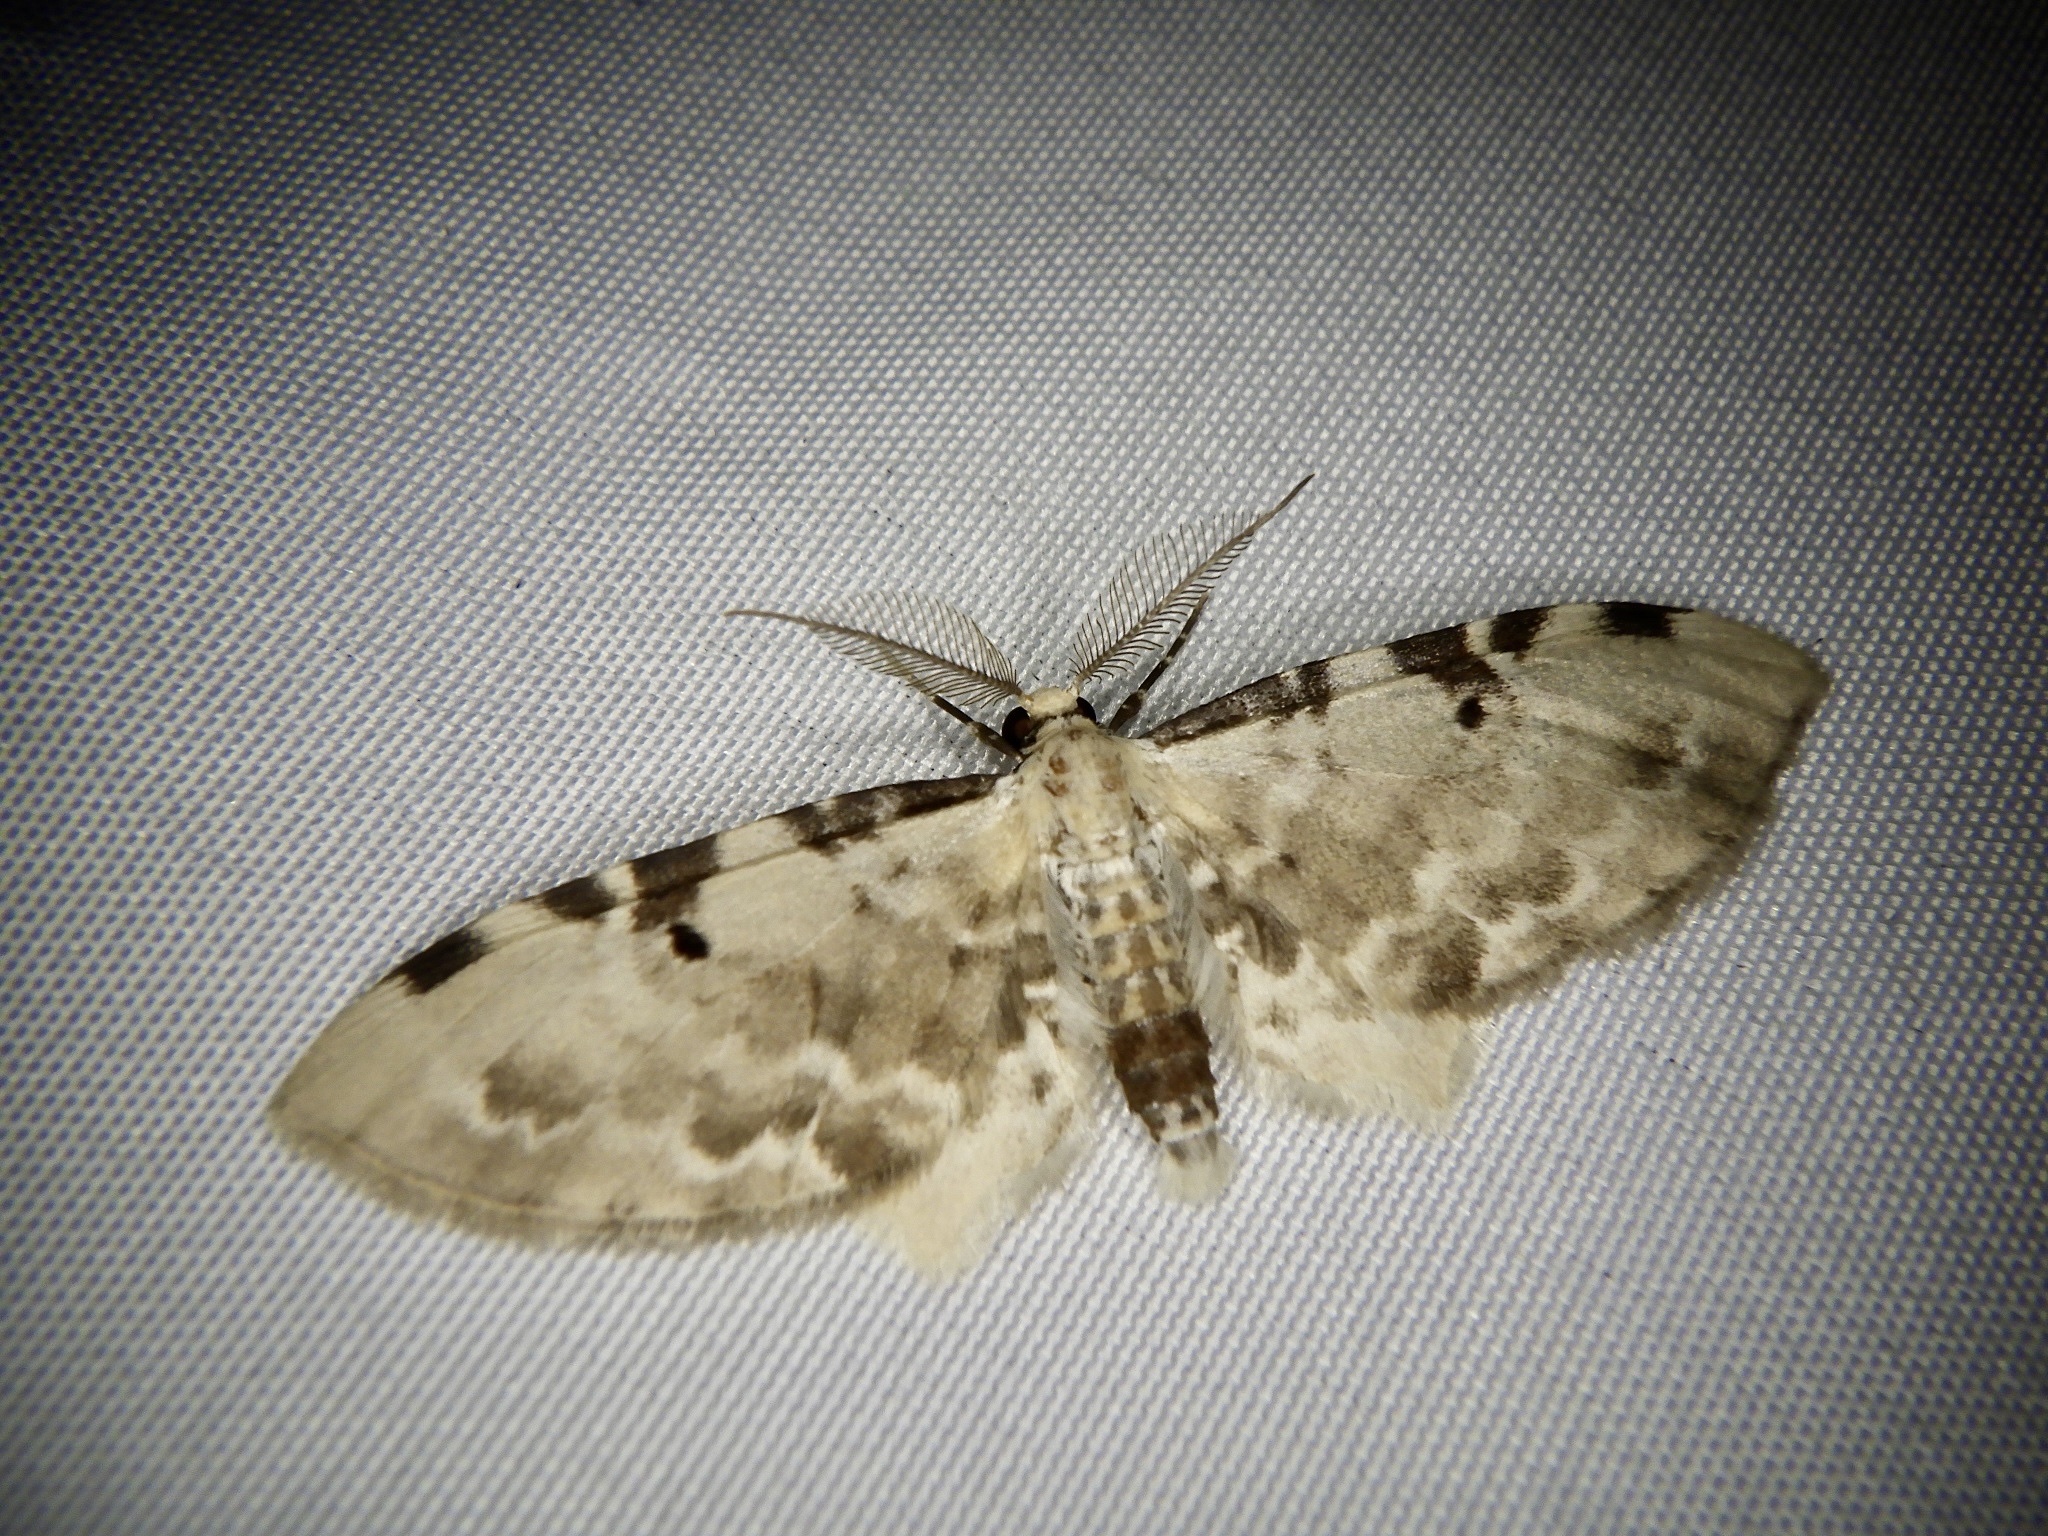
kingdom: Animalia
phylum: Arthropoda
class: Insecta
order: Lepidoptera
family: Geometridae
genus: Brabira
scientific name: Brabira artemidora
